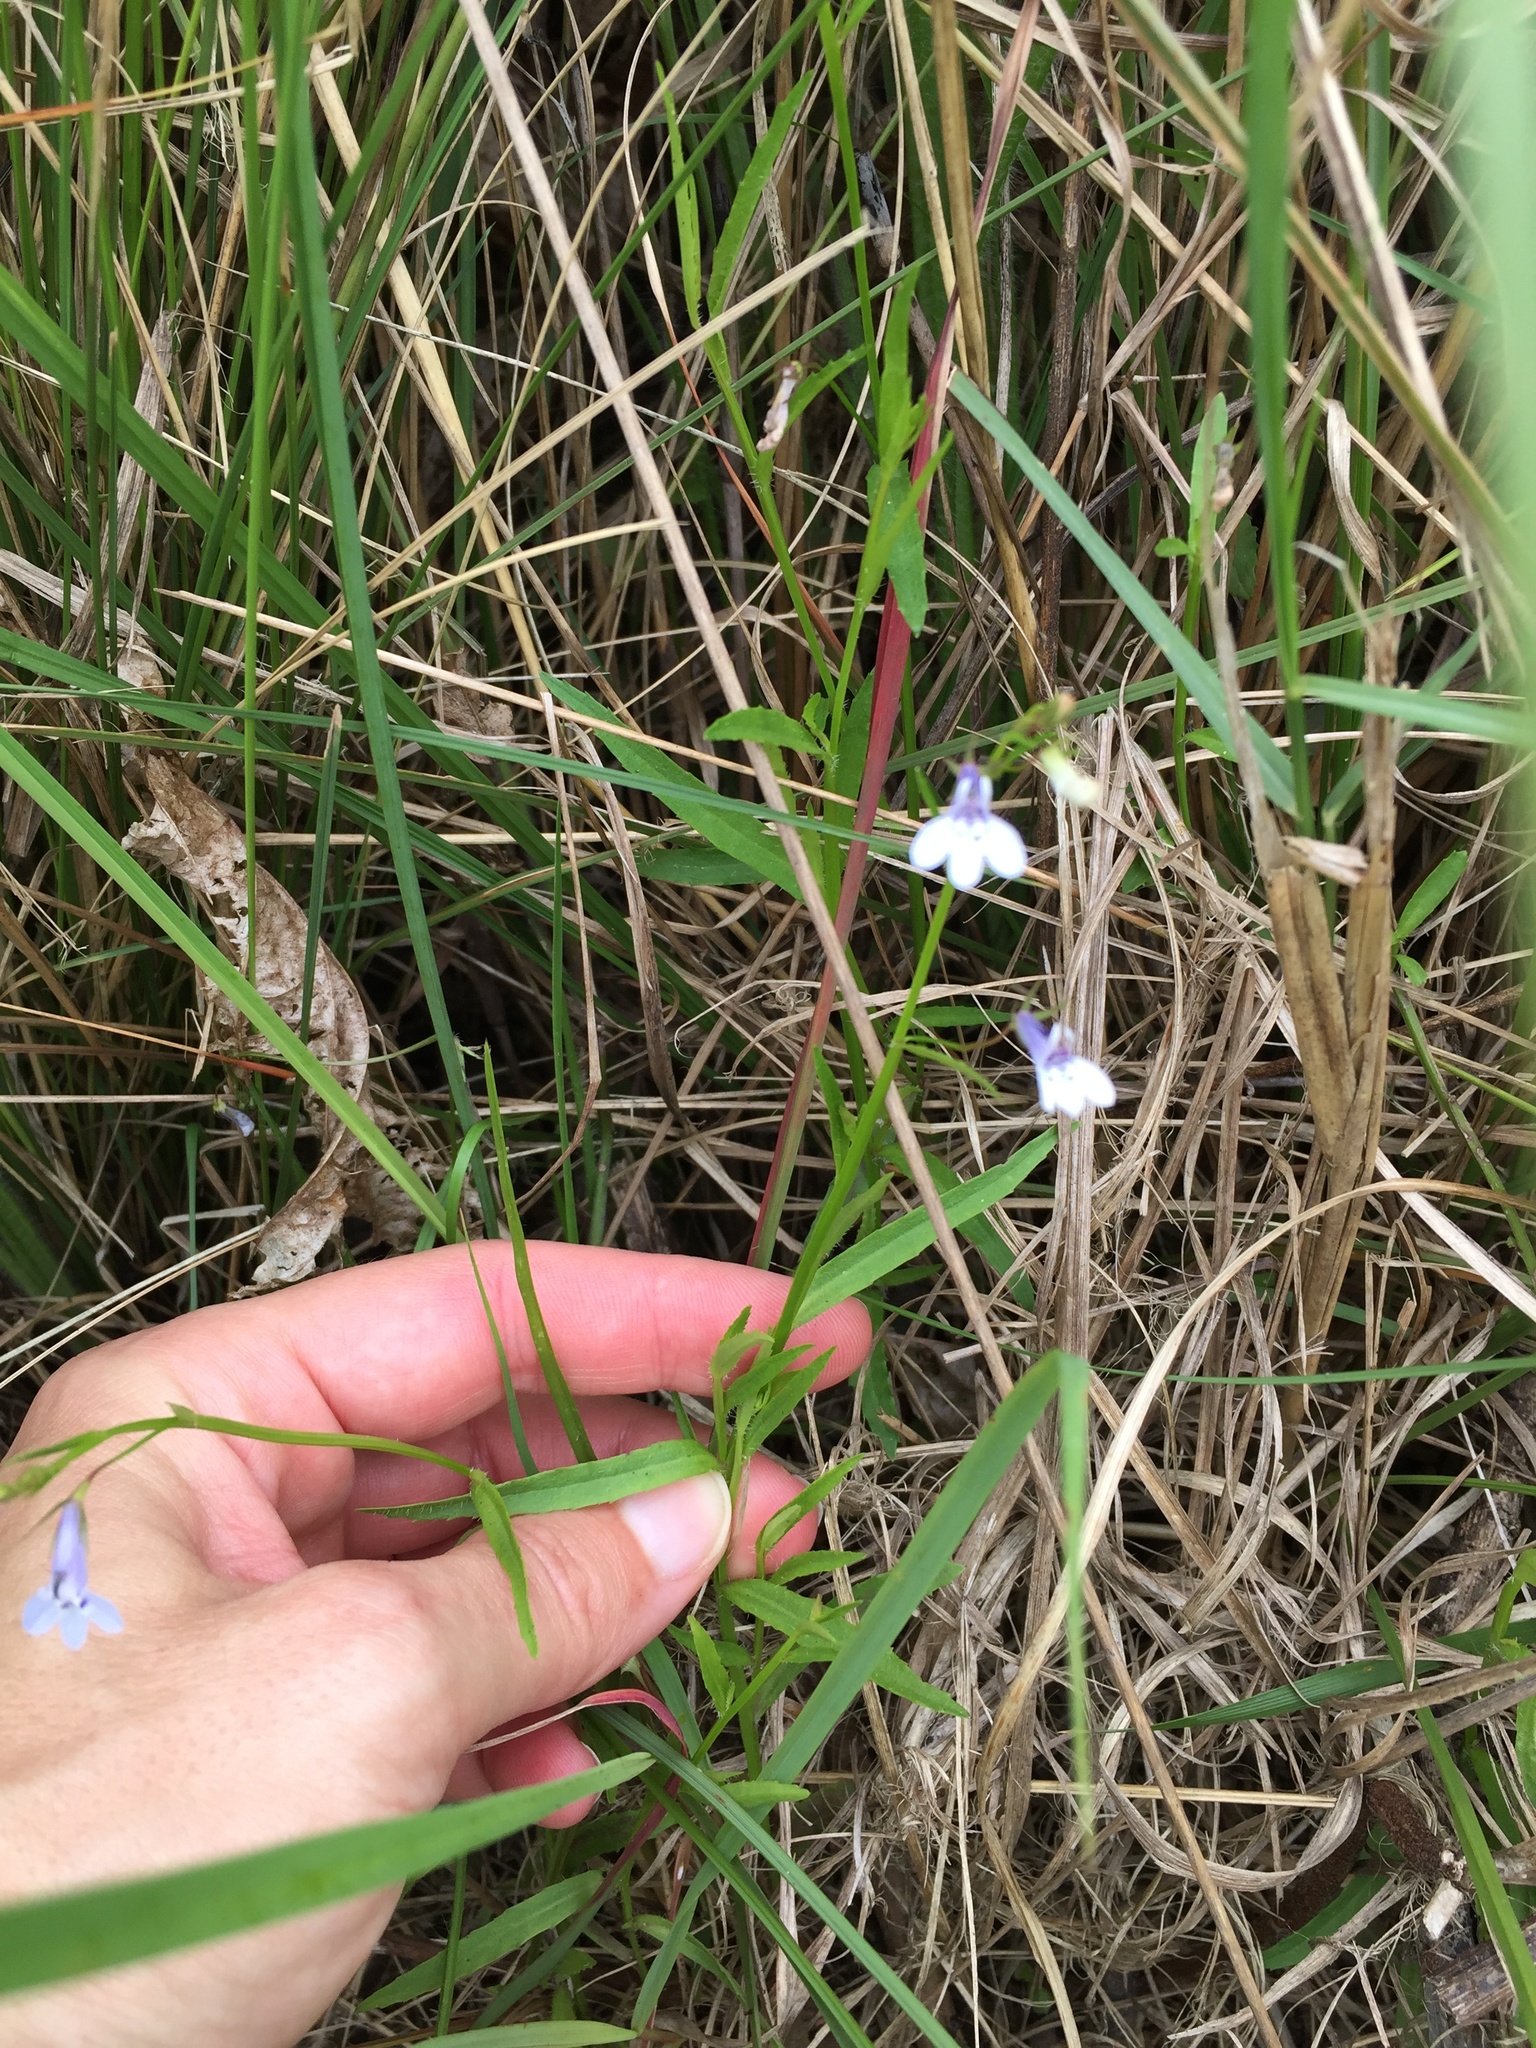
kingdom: Plantae
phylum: Tracheophyta
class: Magnoliopsida
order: Asterales
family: Campanulaceae
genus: Lobelia
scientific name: Lobelia flaccida
